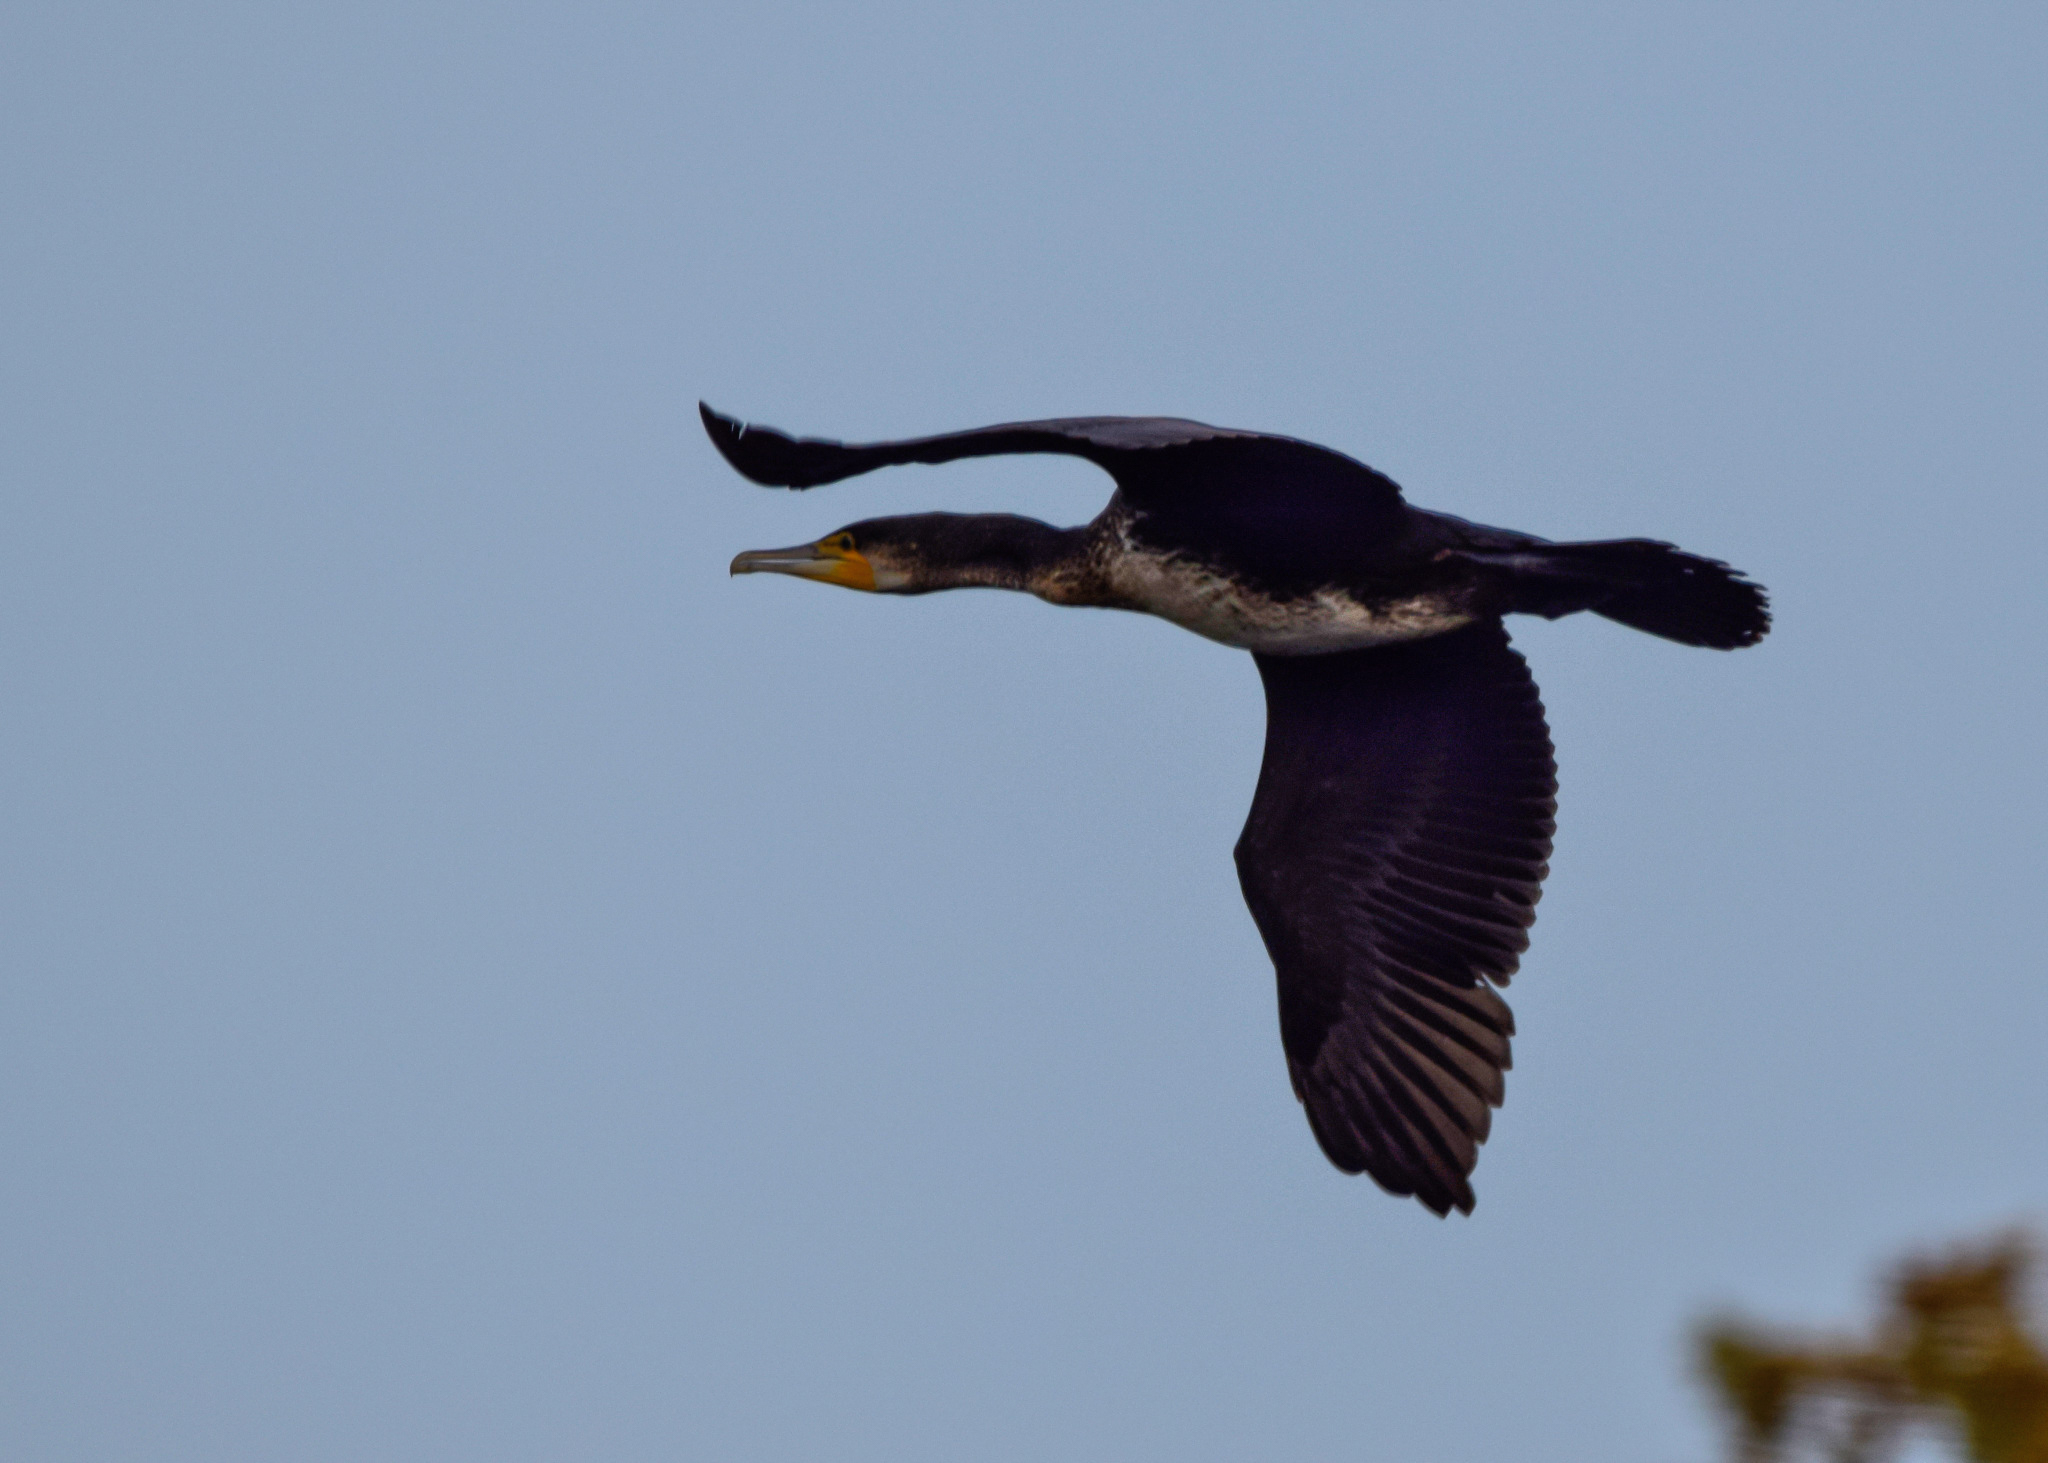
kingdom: Animalia
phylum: Chordata
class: Aves
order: Suliformes
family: Phalacrocoracidae
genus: Phalacrocorax
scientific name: Phalacrocorax carbo
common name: Great cormorant
